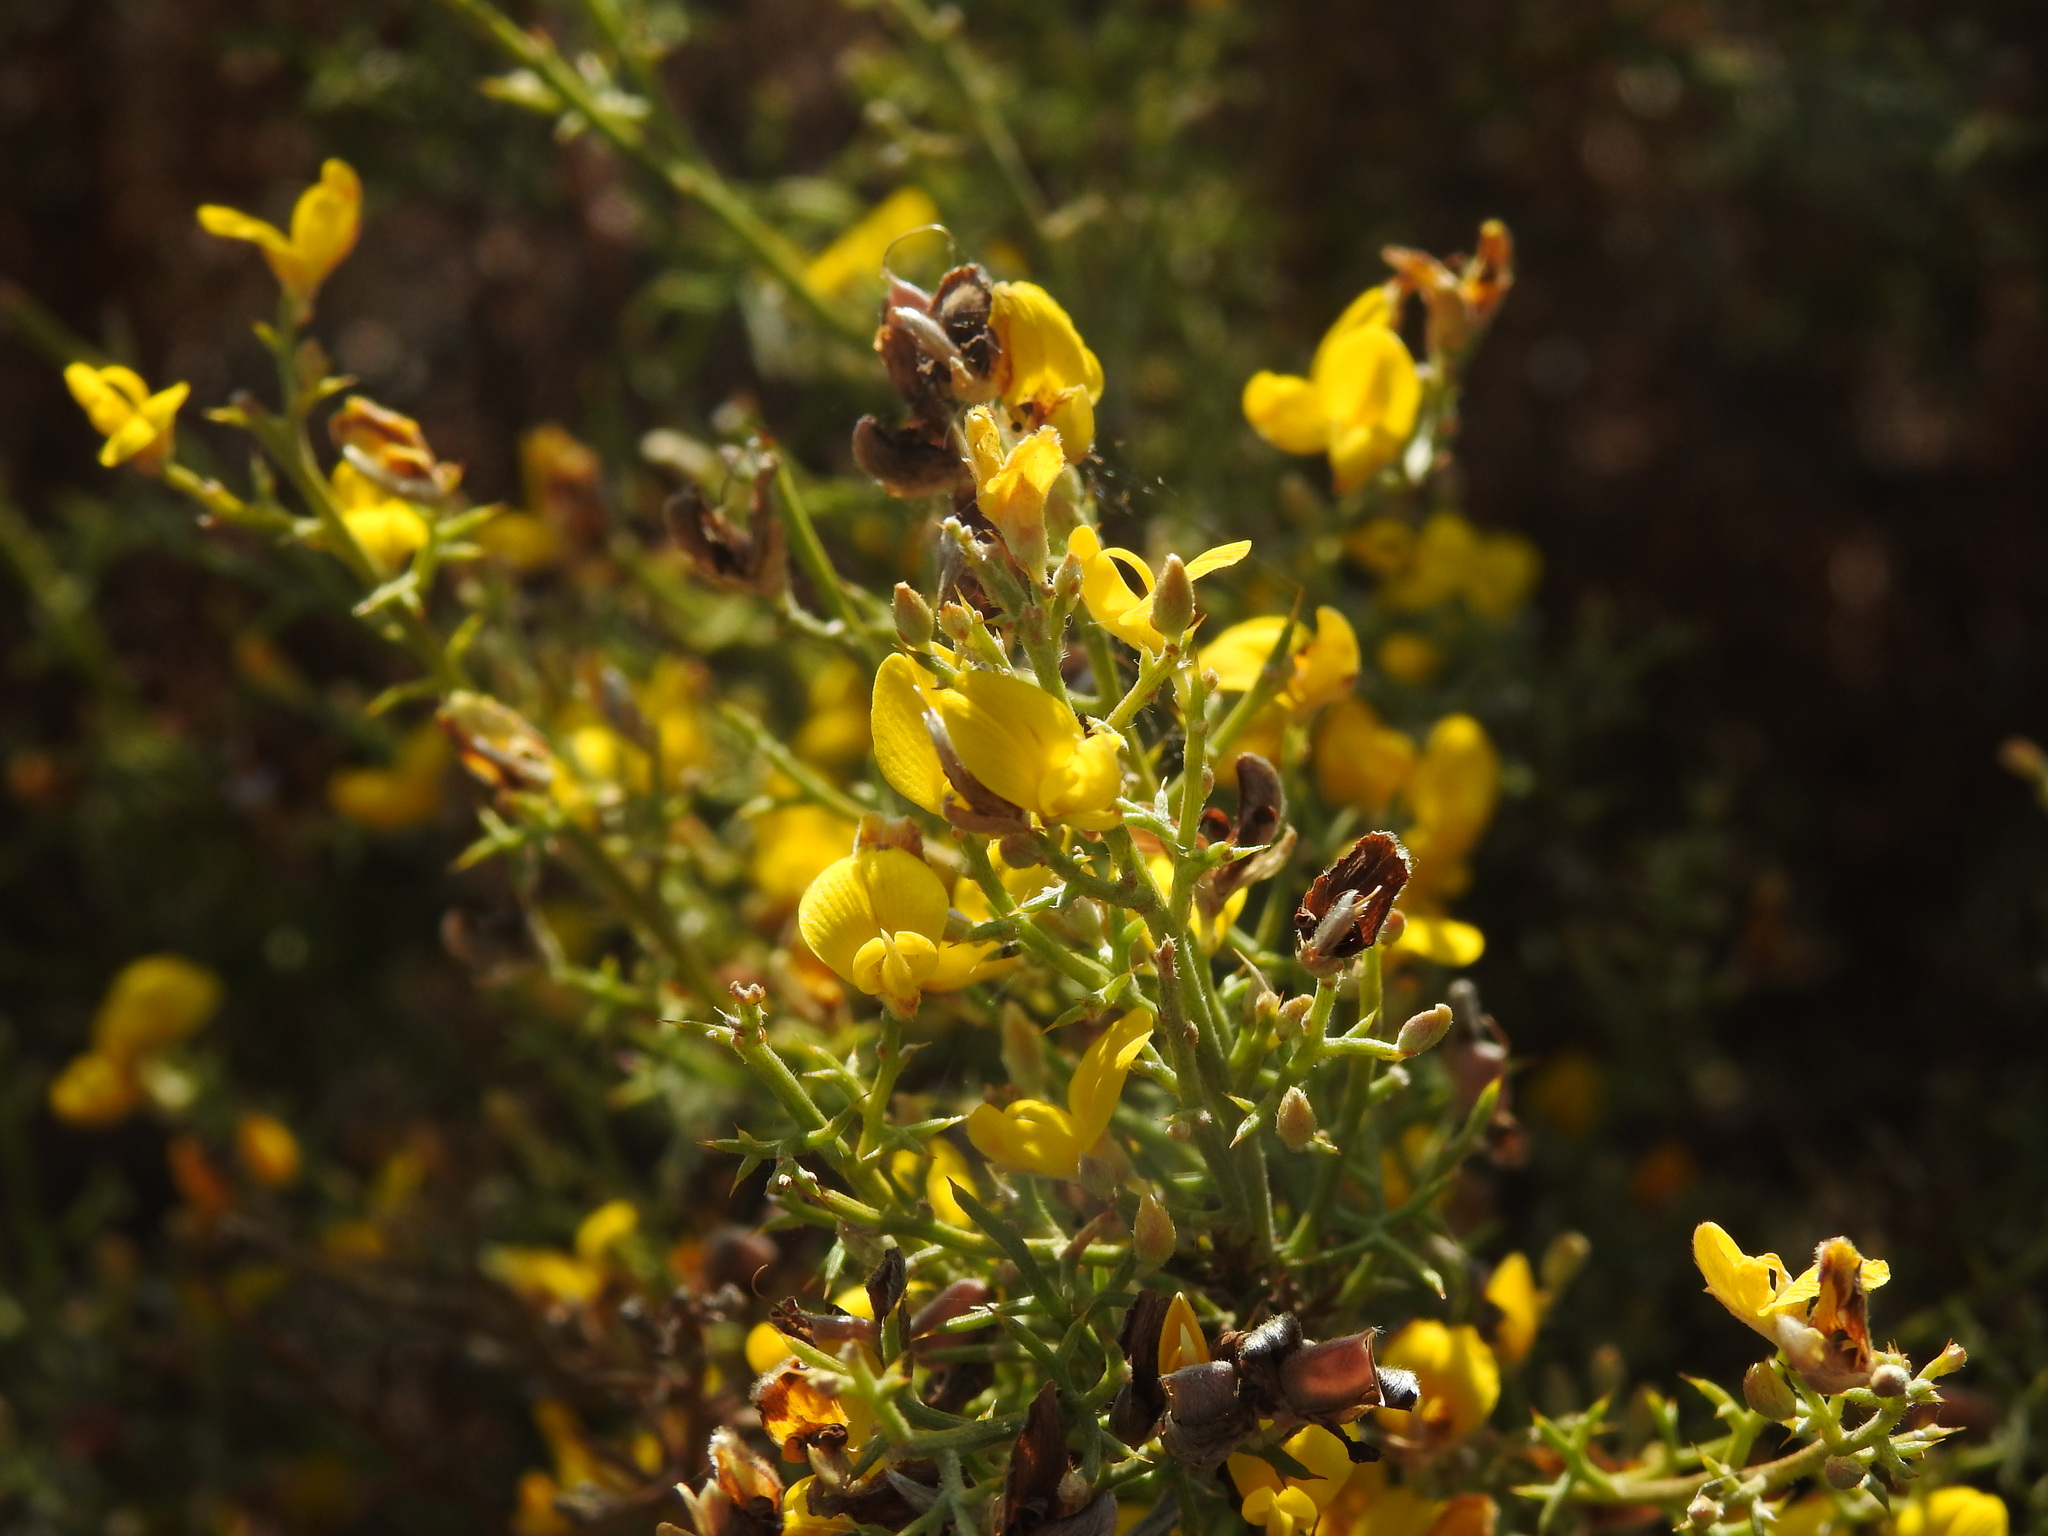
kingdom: Plantae
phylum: Tracheophyta
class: Magnoliopsida
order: Fabales
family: Fabaceae
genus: Stauracanthus
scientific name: Stauracanthus boivinii
